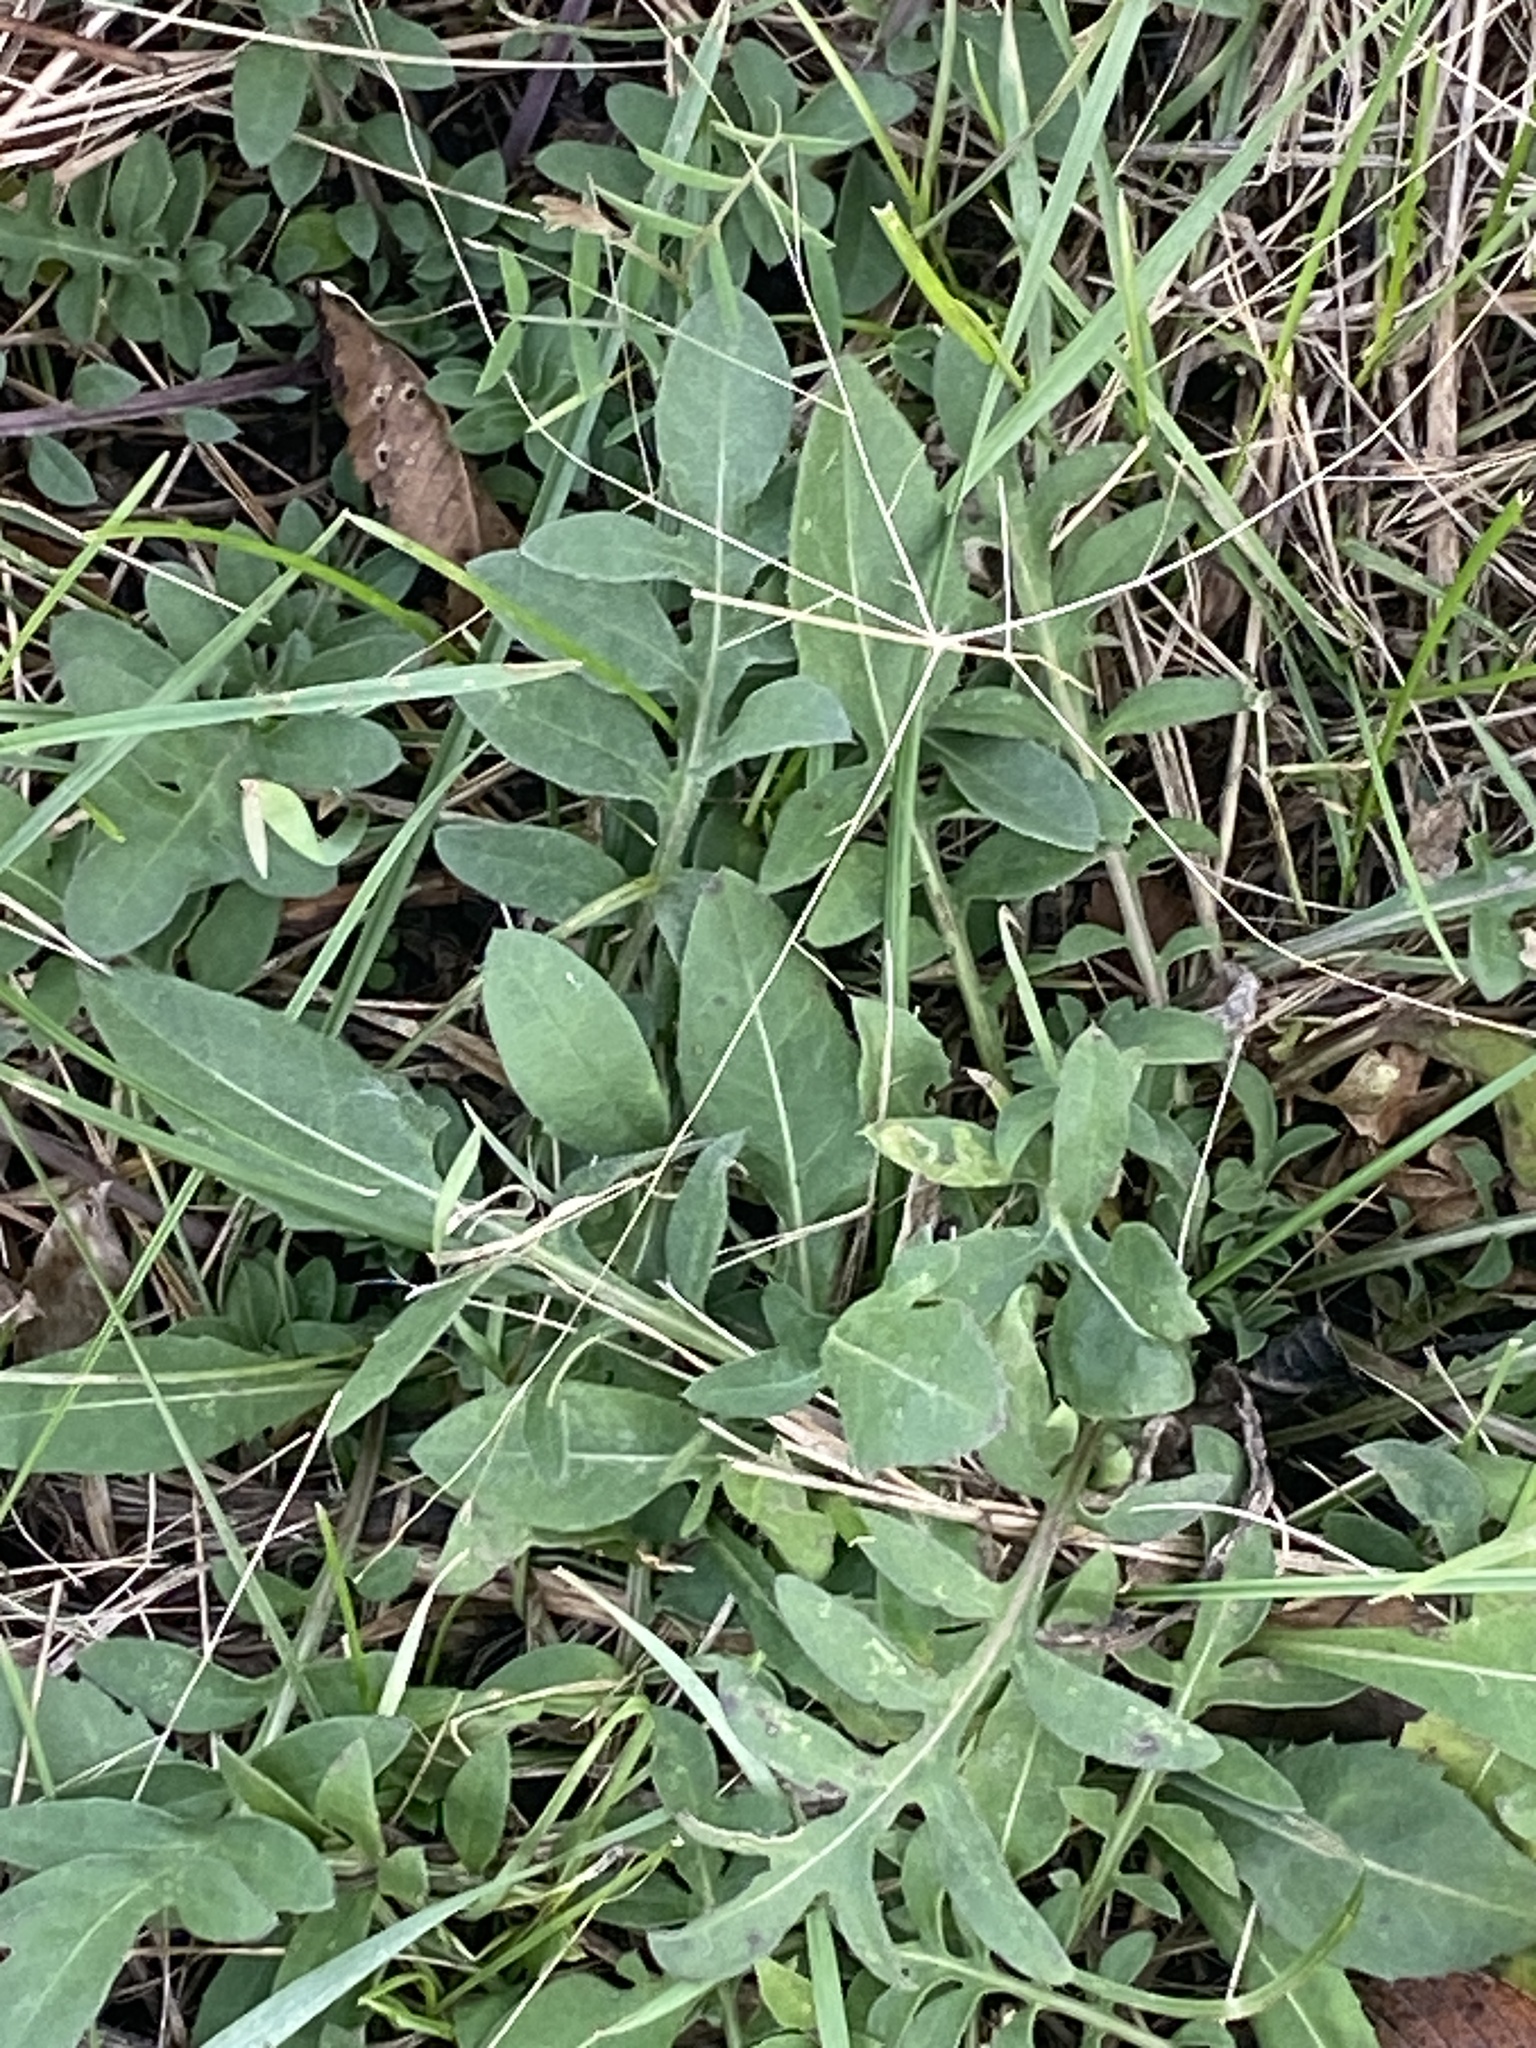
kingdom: Plantae
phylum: Tracheophyta
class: Magnoliopsida
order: Asterales
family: Asteraceae
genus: Centaurea
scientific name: Centaurea stoebe
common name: Spotted knapweed
